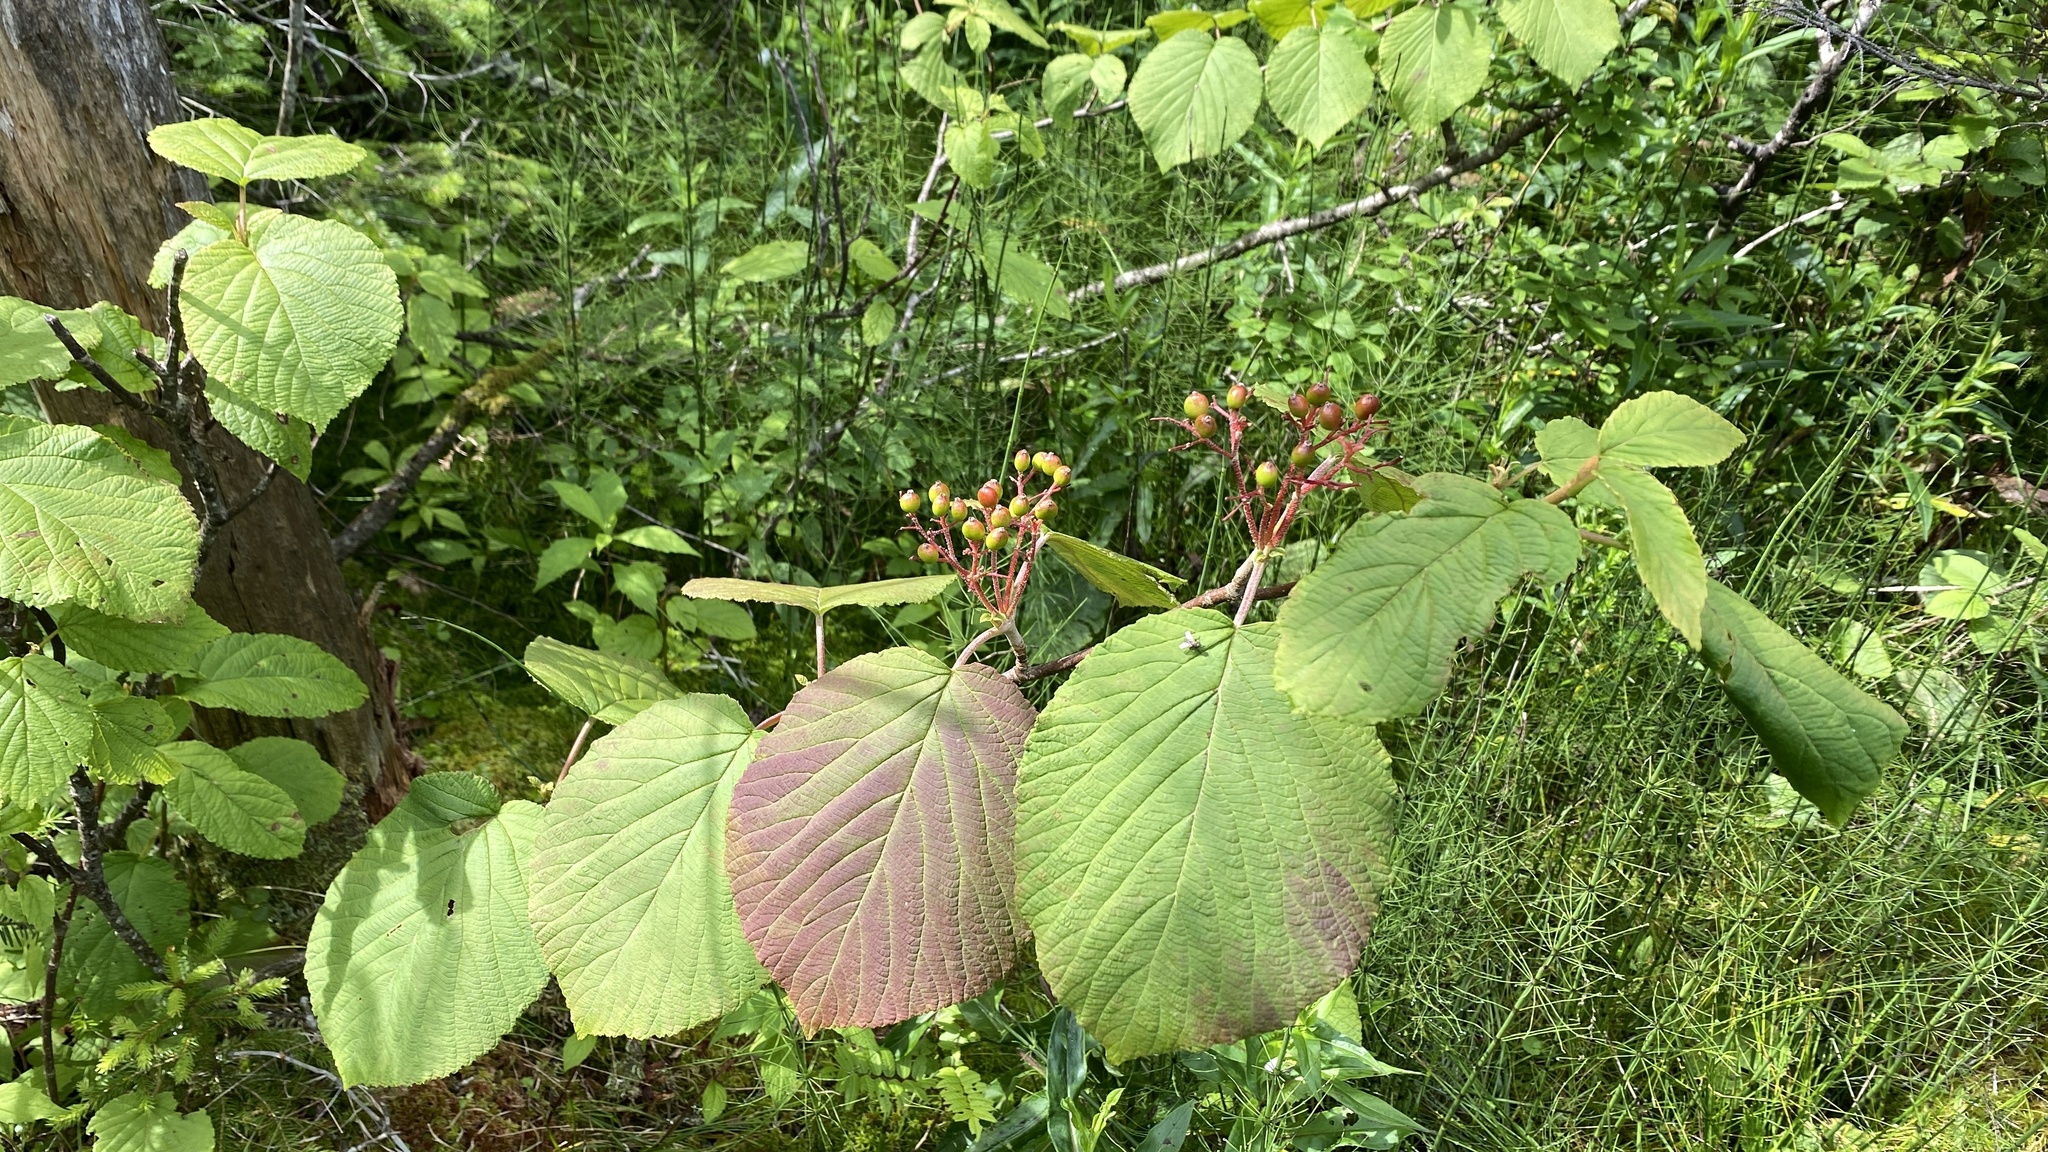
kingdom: Plantae
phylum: Tracheophyta
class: Magnoliopsida
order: Dipsacales
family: Viburnaceae
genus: Viburnum
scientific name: Viburnum lantanoides
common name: Hobblebush
